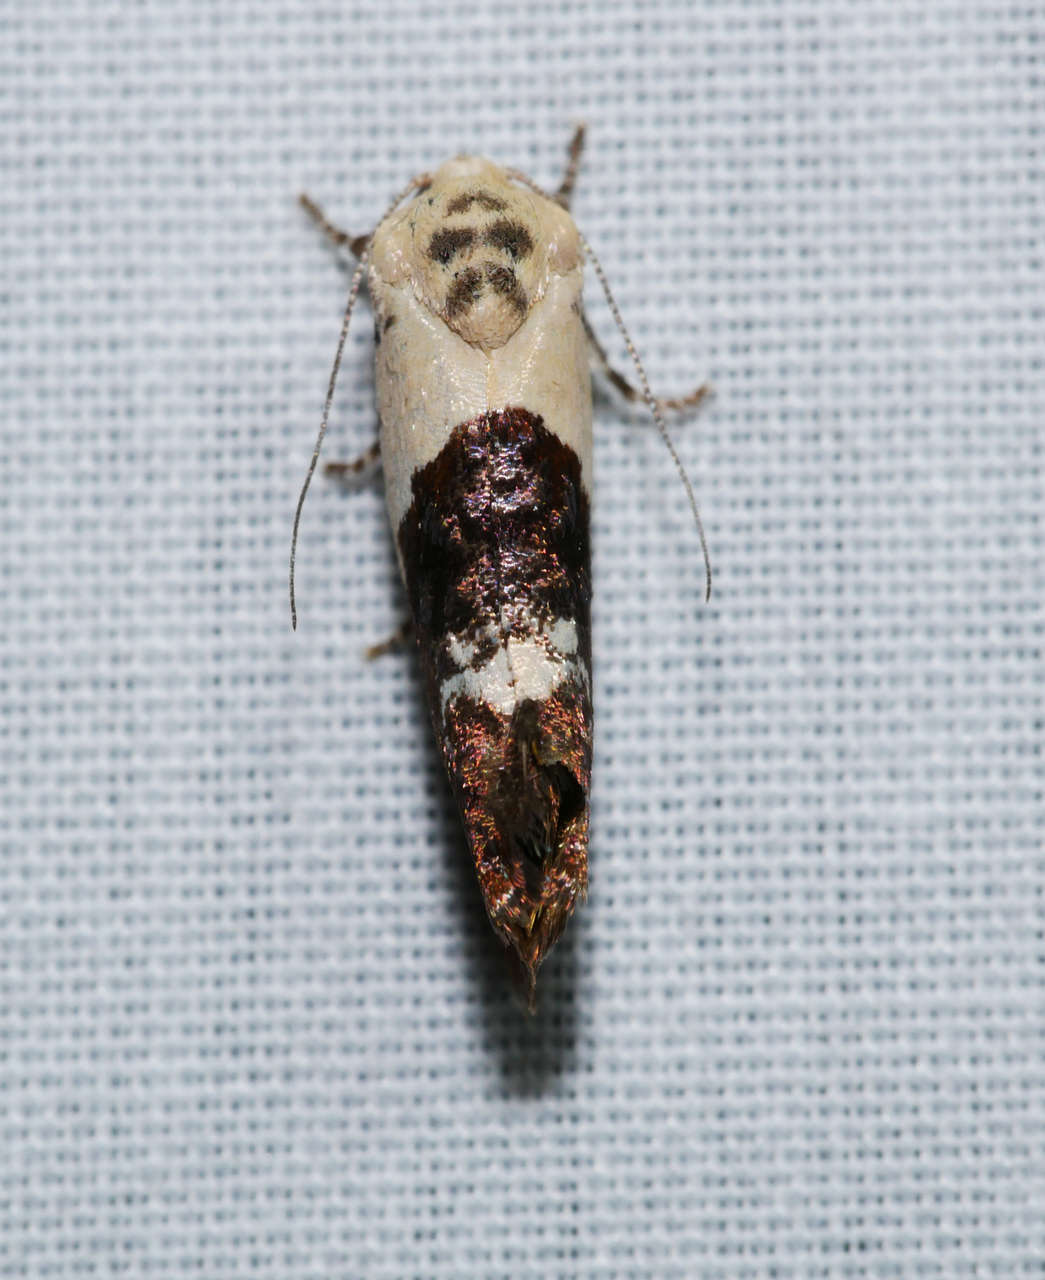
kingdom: Animalia
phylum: Arthropoda
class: Insecta
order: Lepidoptera
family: Depressariidae
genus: Hypertropha
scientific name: Hypertropha chlaenota
